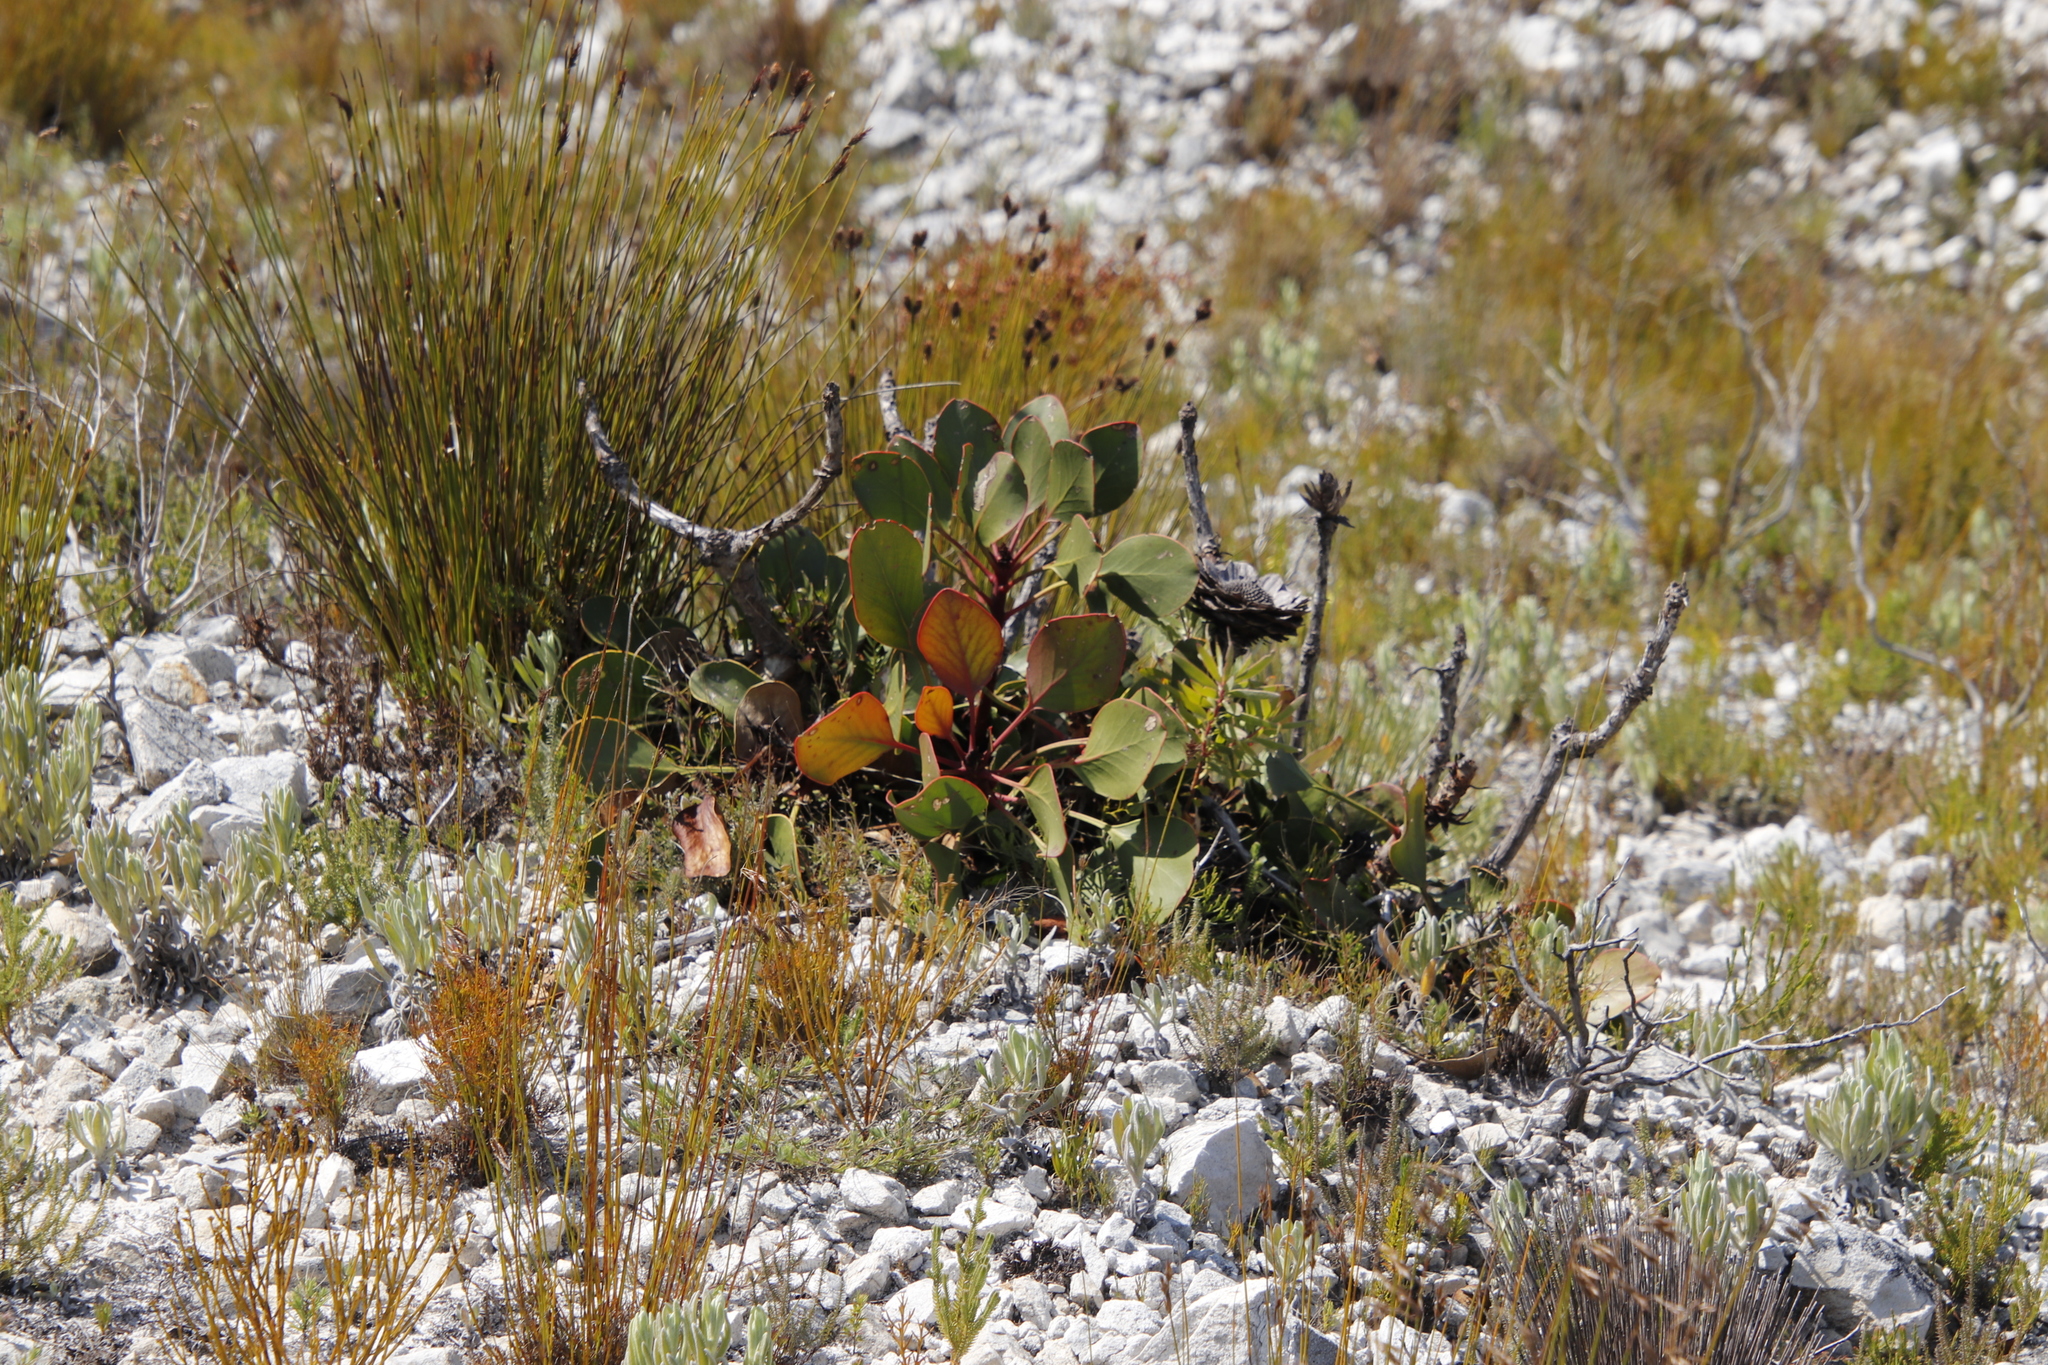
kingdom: Plantae
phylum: Tracheophyta
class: Magnoliopsida
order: Proteales
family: Proteaceae
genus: Protea
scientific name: Protea cynaroides
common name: King protea
